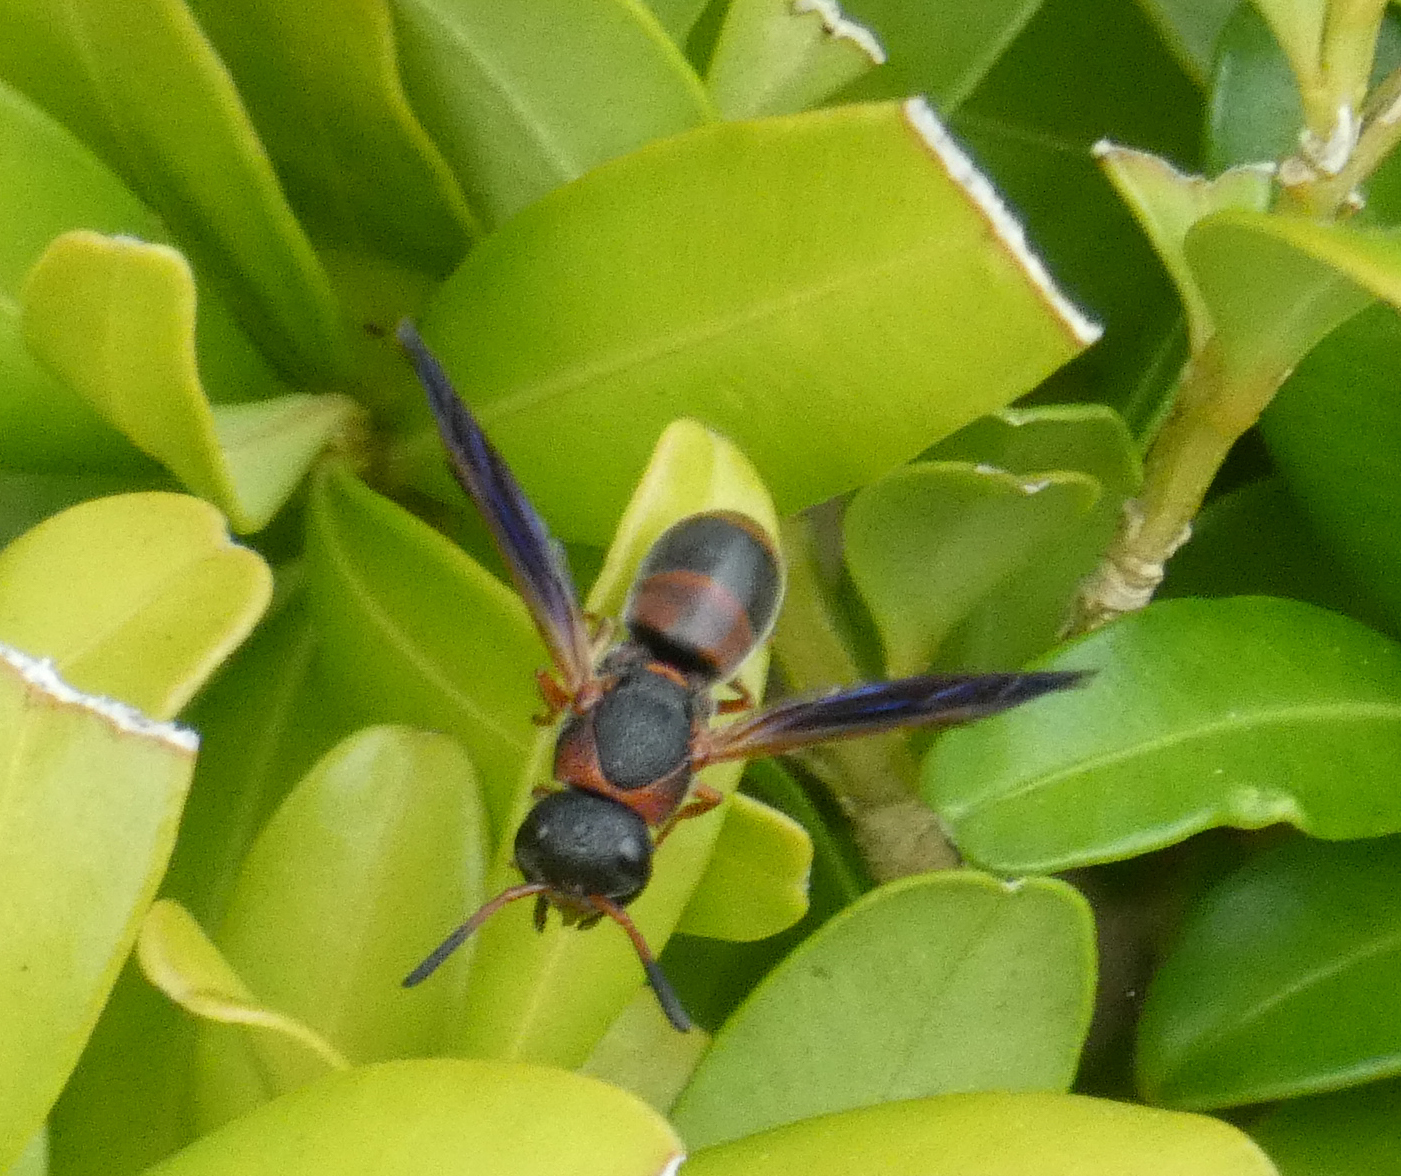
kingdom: Animalia
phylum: Arthropoda
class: Insecta
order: Hymenoptera
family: Eumenidae
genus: Pachodynerus
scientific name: Pachodynerus erynnis
